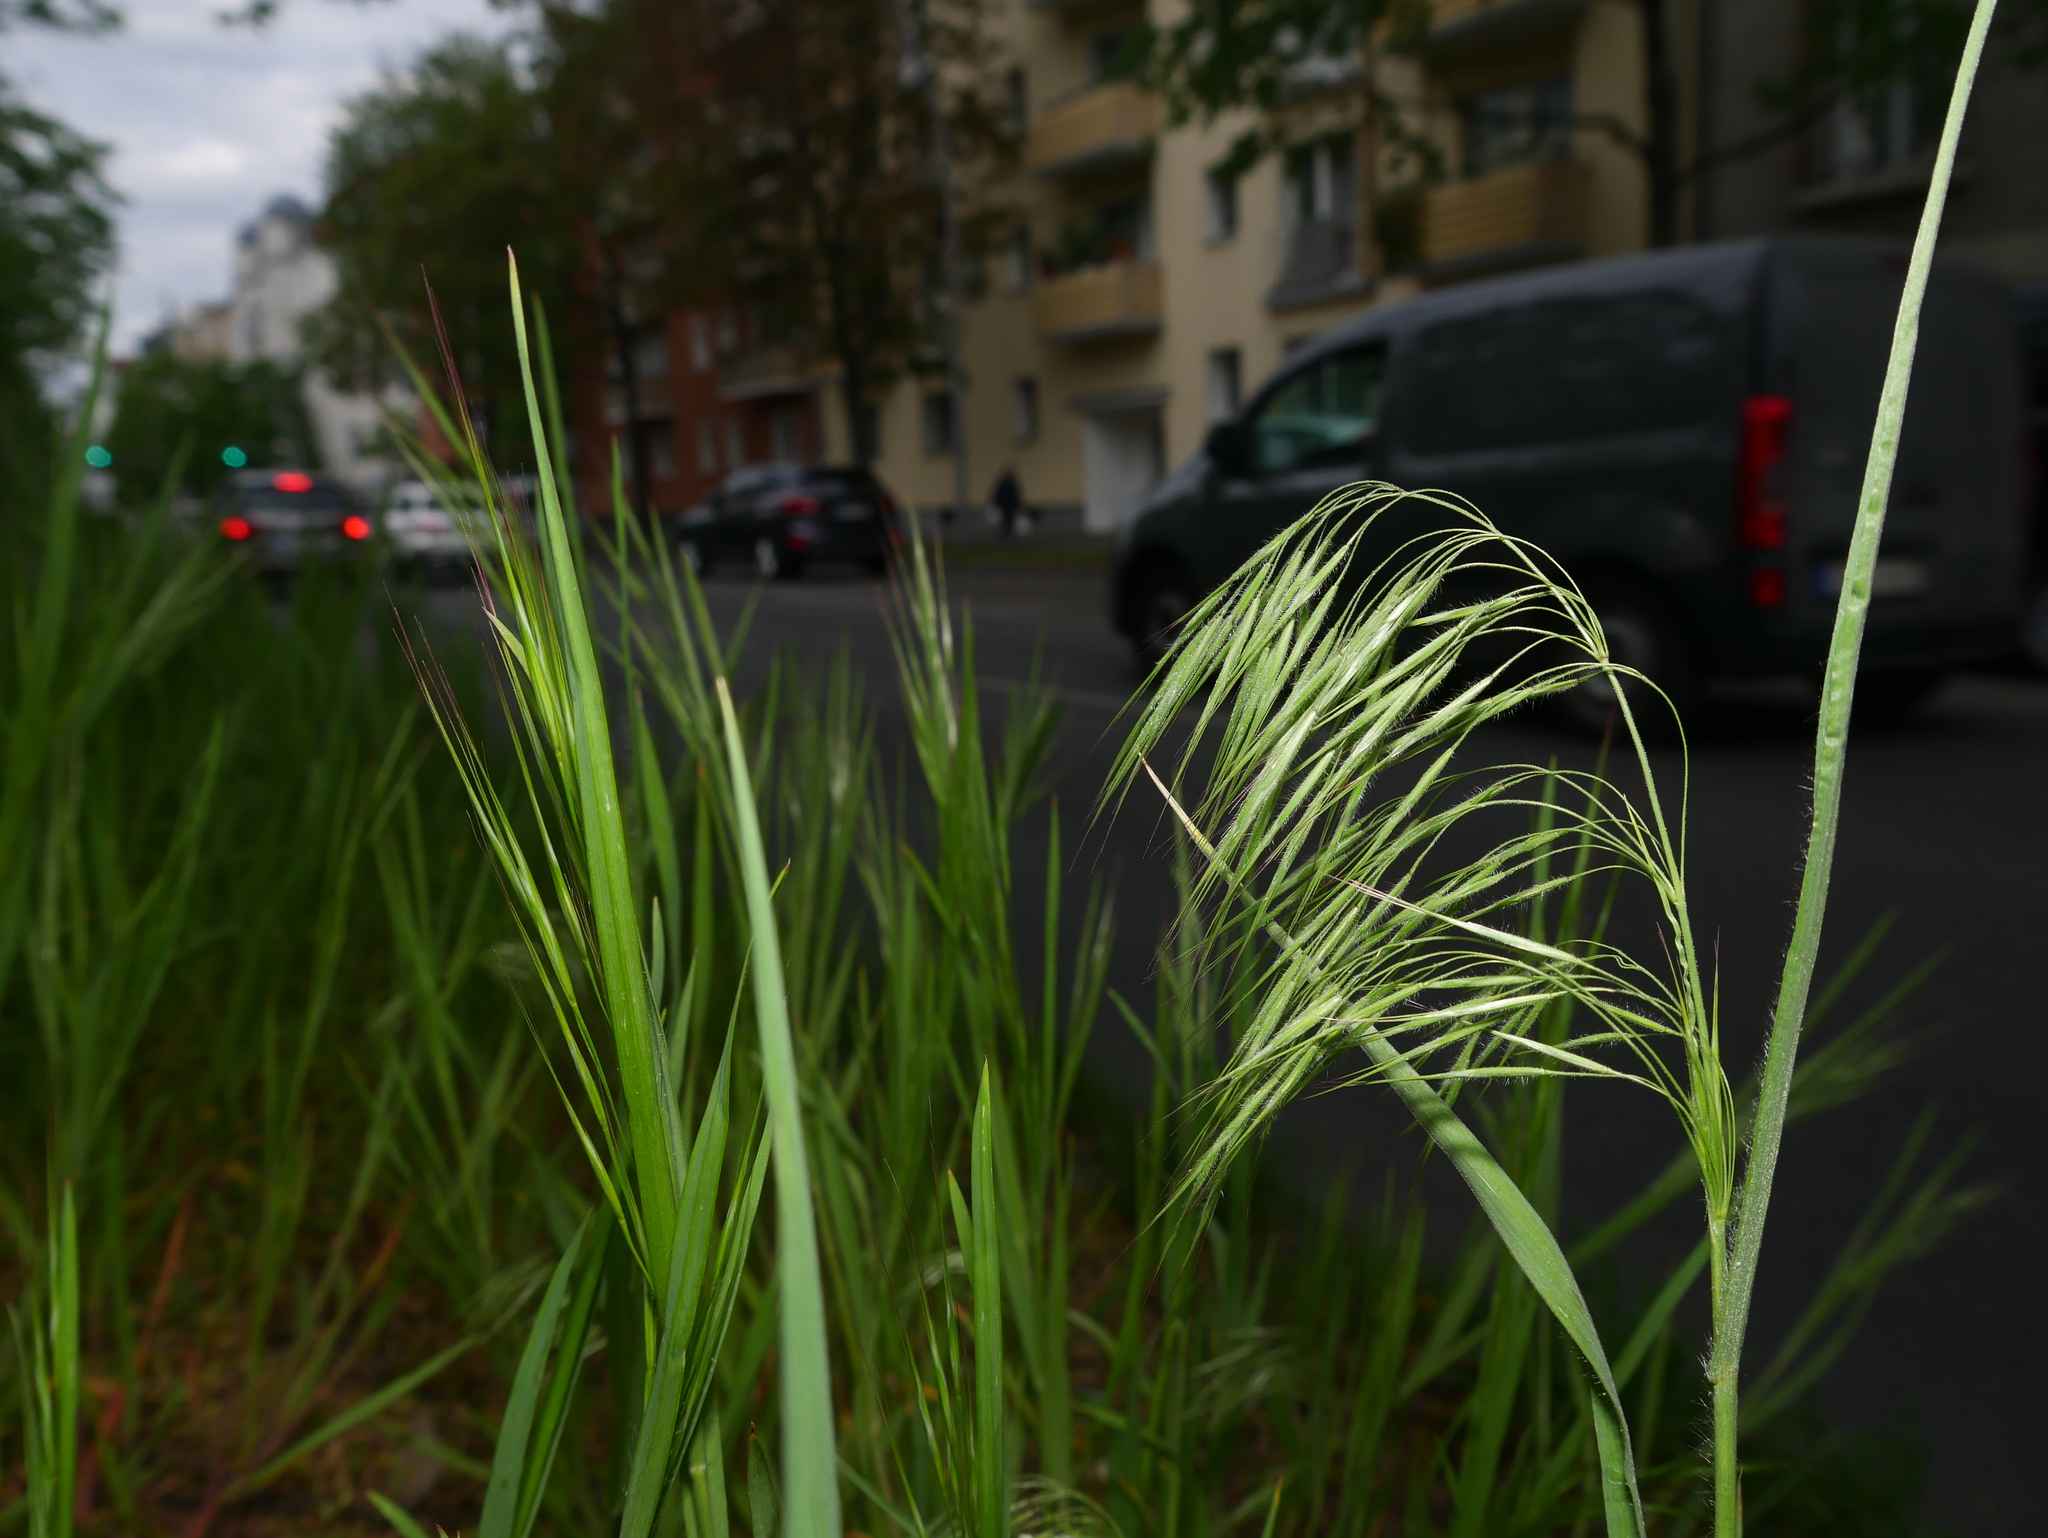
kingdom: Plantae
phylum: Tracheophyta
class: Liliopsida
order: Poales
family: Poaceae
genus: Bromus
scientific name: Bromus tectorum
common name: Cheatgrass
